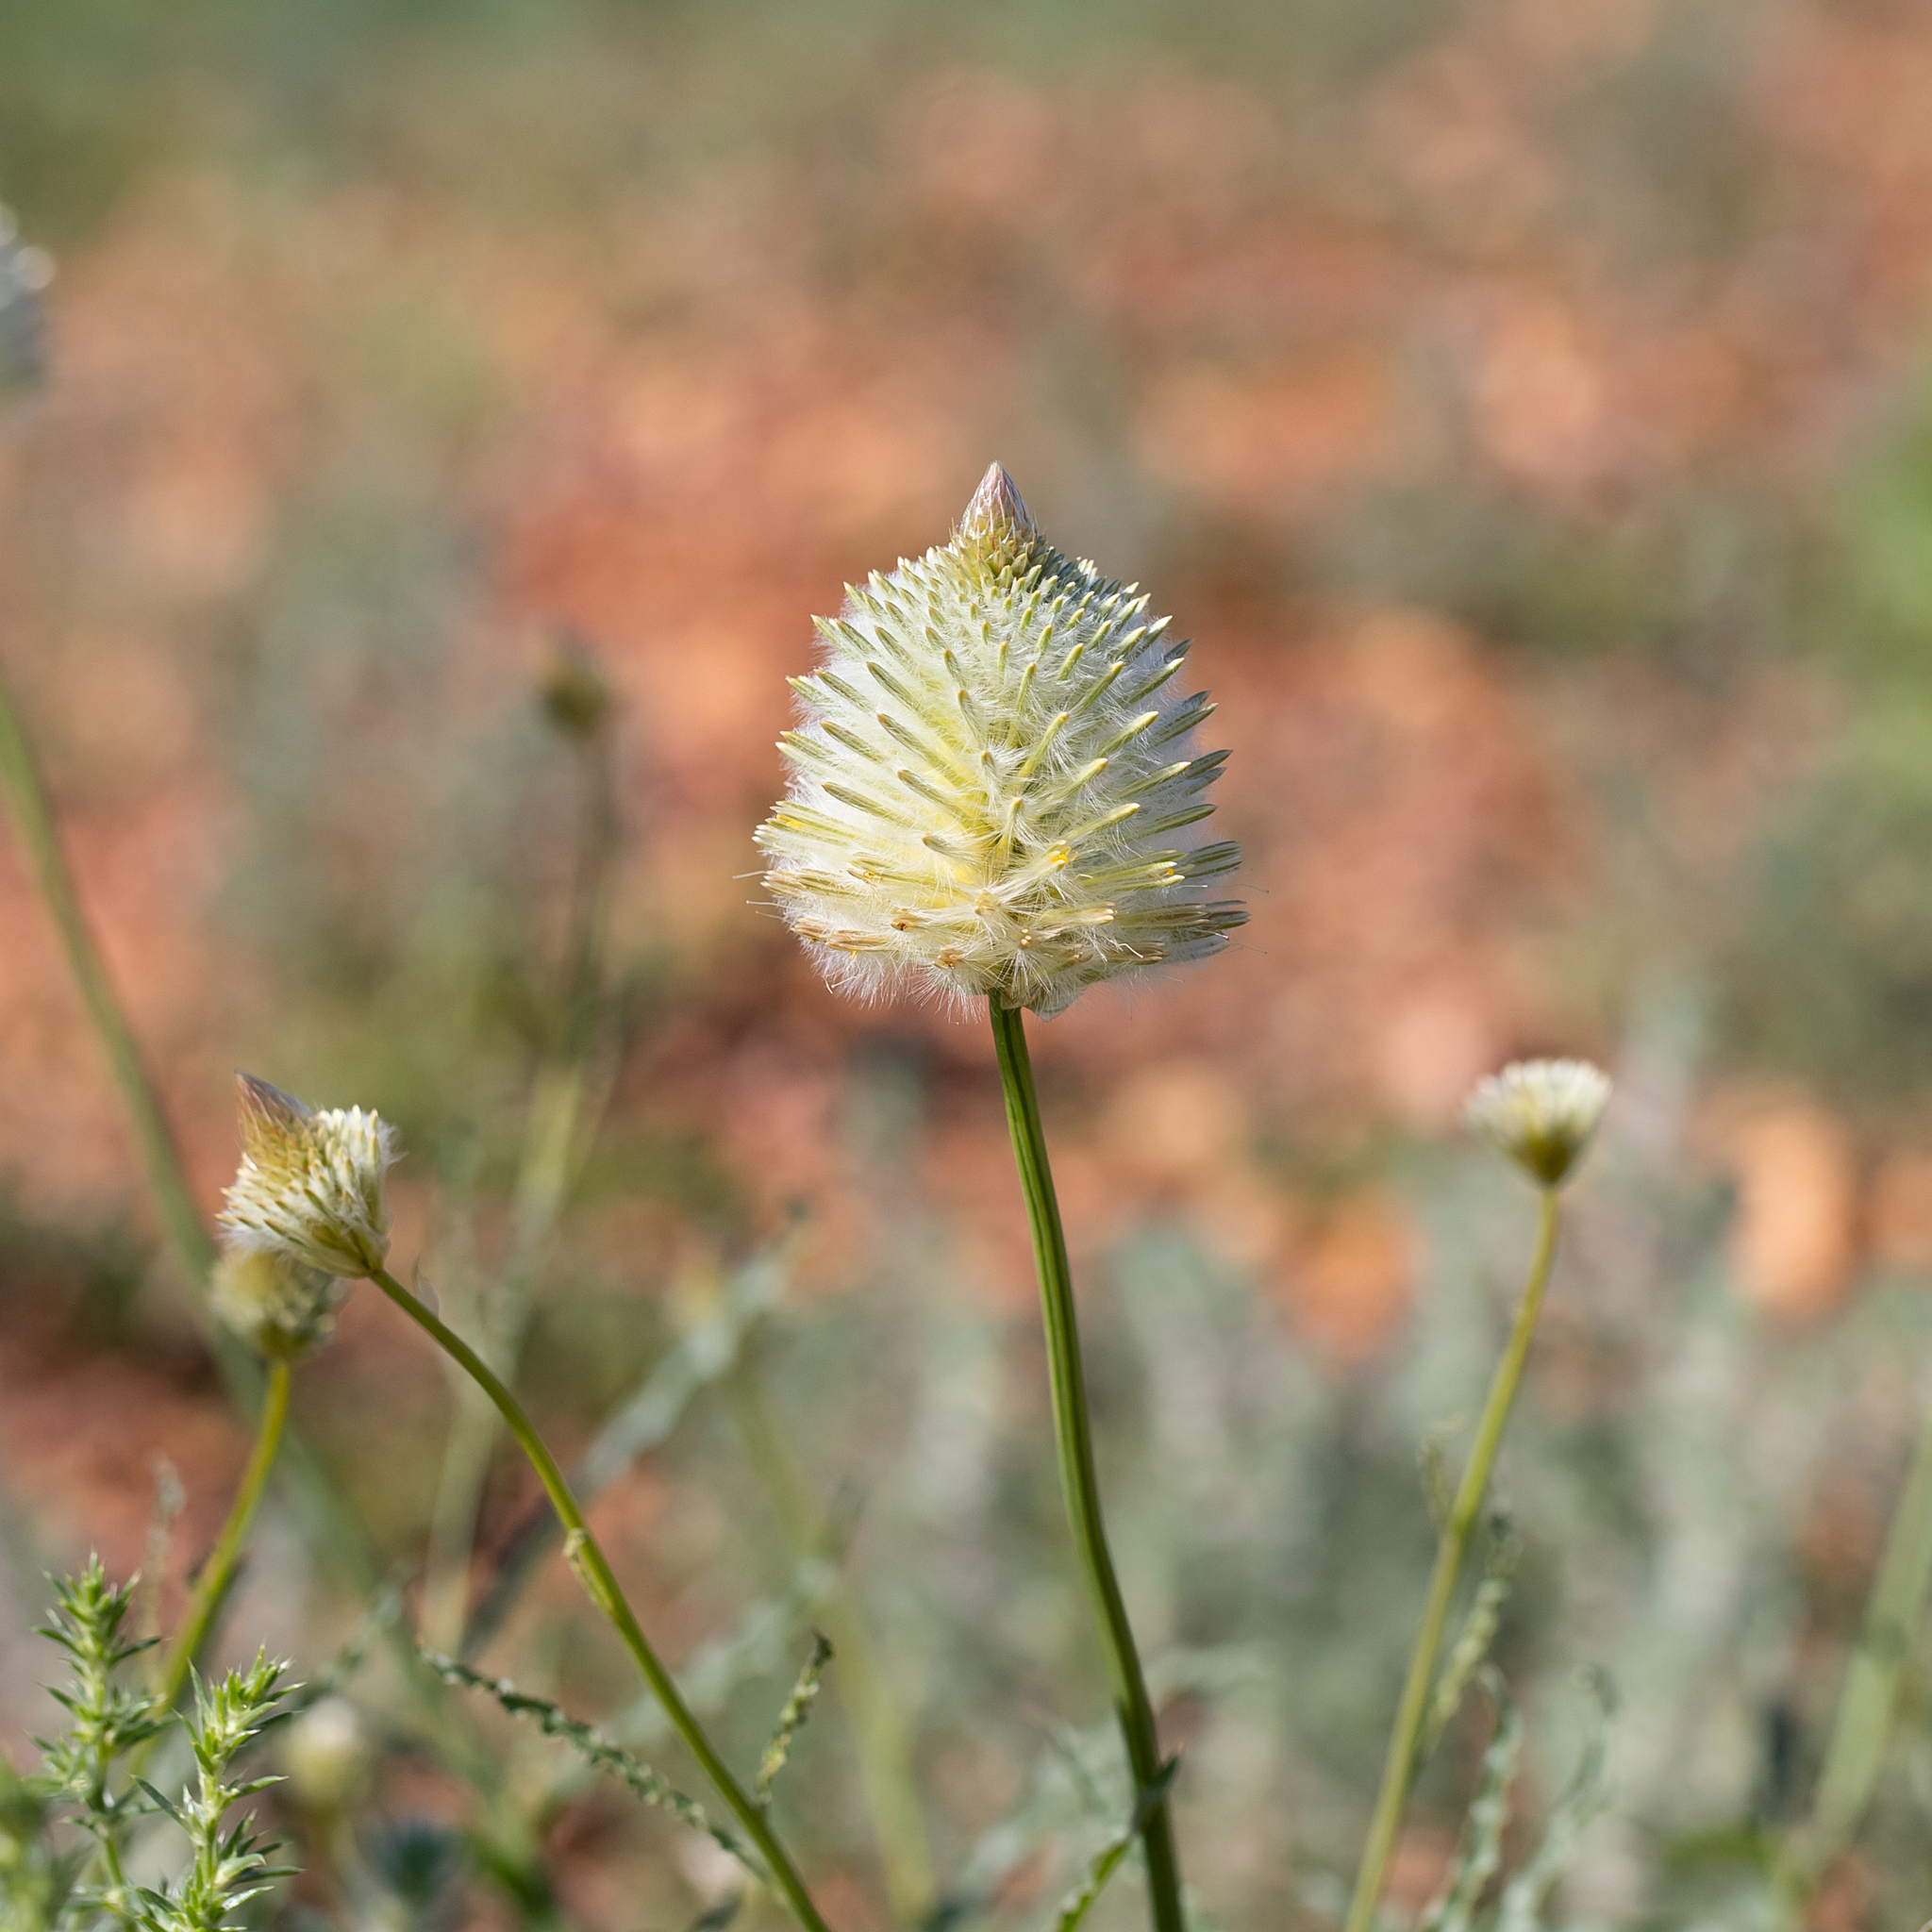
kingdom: Plantae
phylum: Tracheophyta
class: Magnoliopsida
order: Caryophyllales
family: Amaranthaceae
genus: Ptilotus
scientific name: Ptilotus xerophilus
